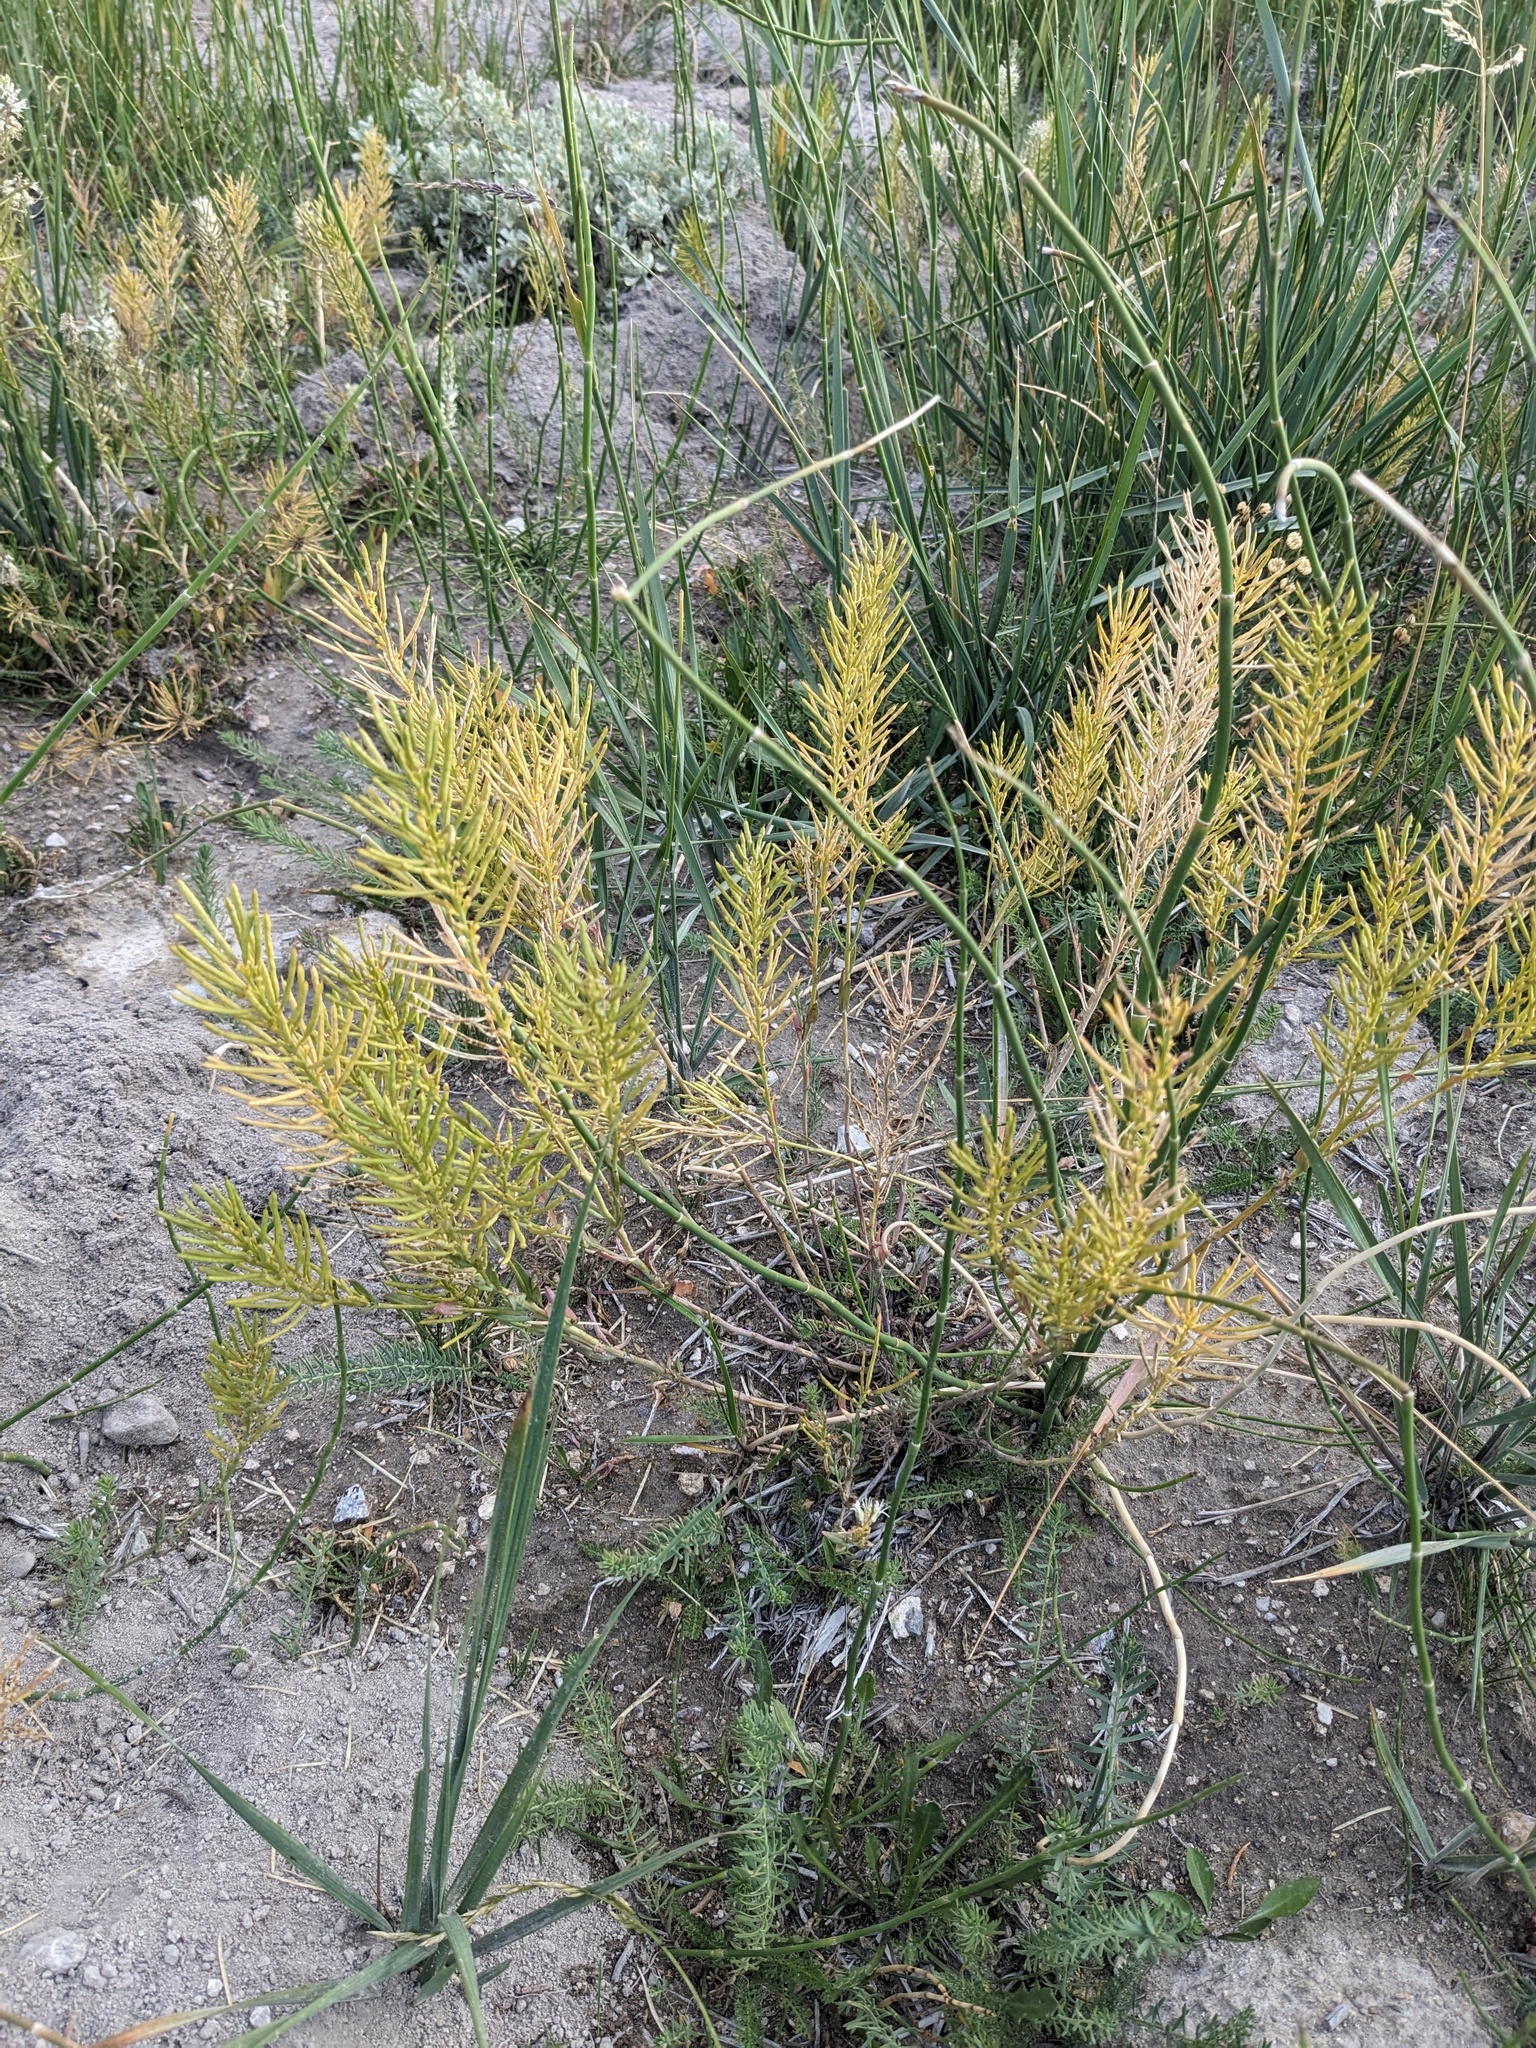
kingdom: Plantae
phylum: Tracheophyta
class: Magnoliopsida
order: Brassicales
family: Brassicaceae
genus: Thelypodium
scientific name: Thelypodium crispum
